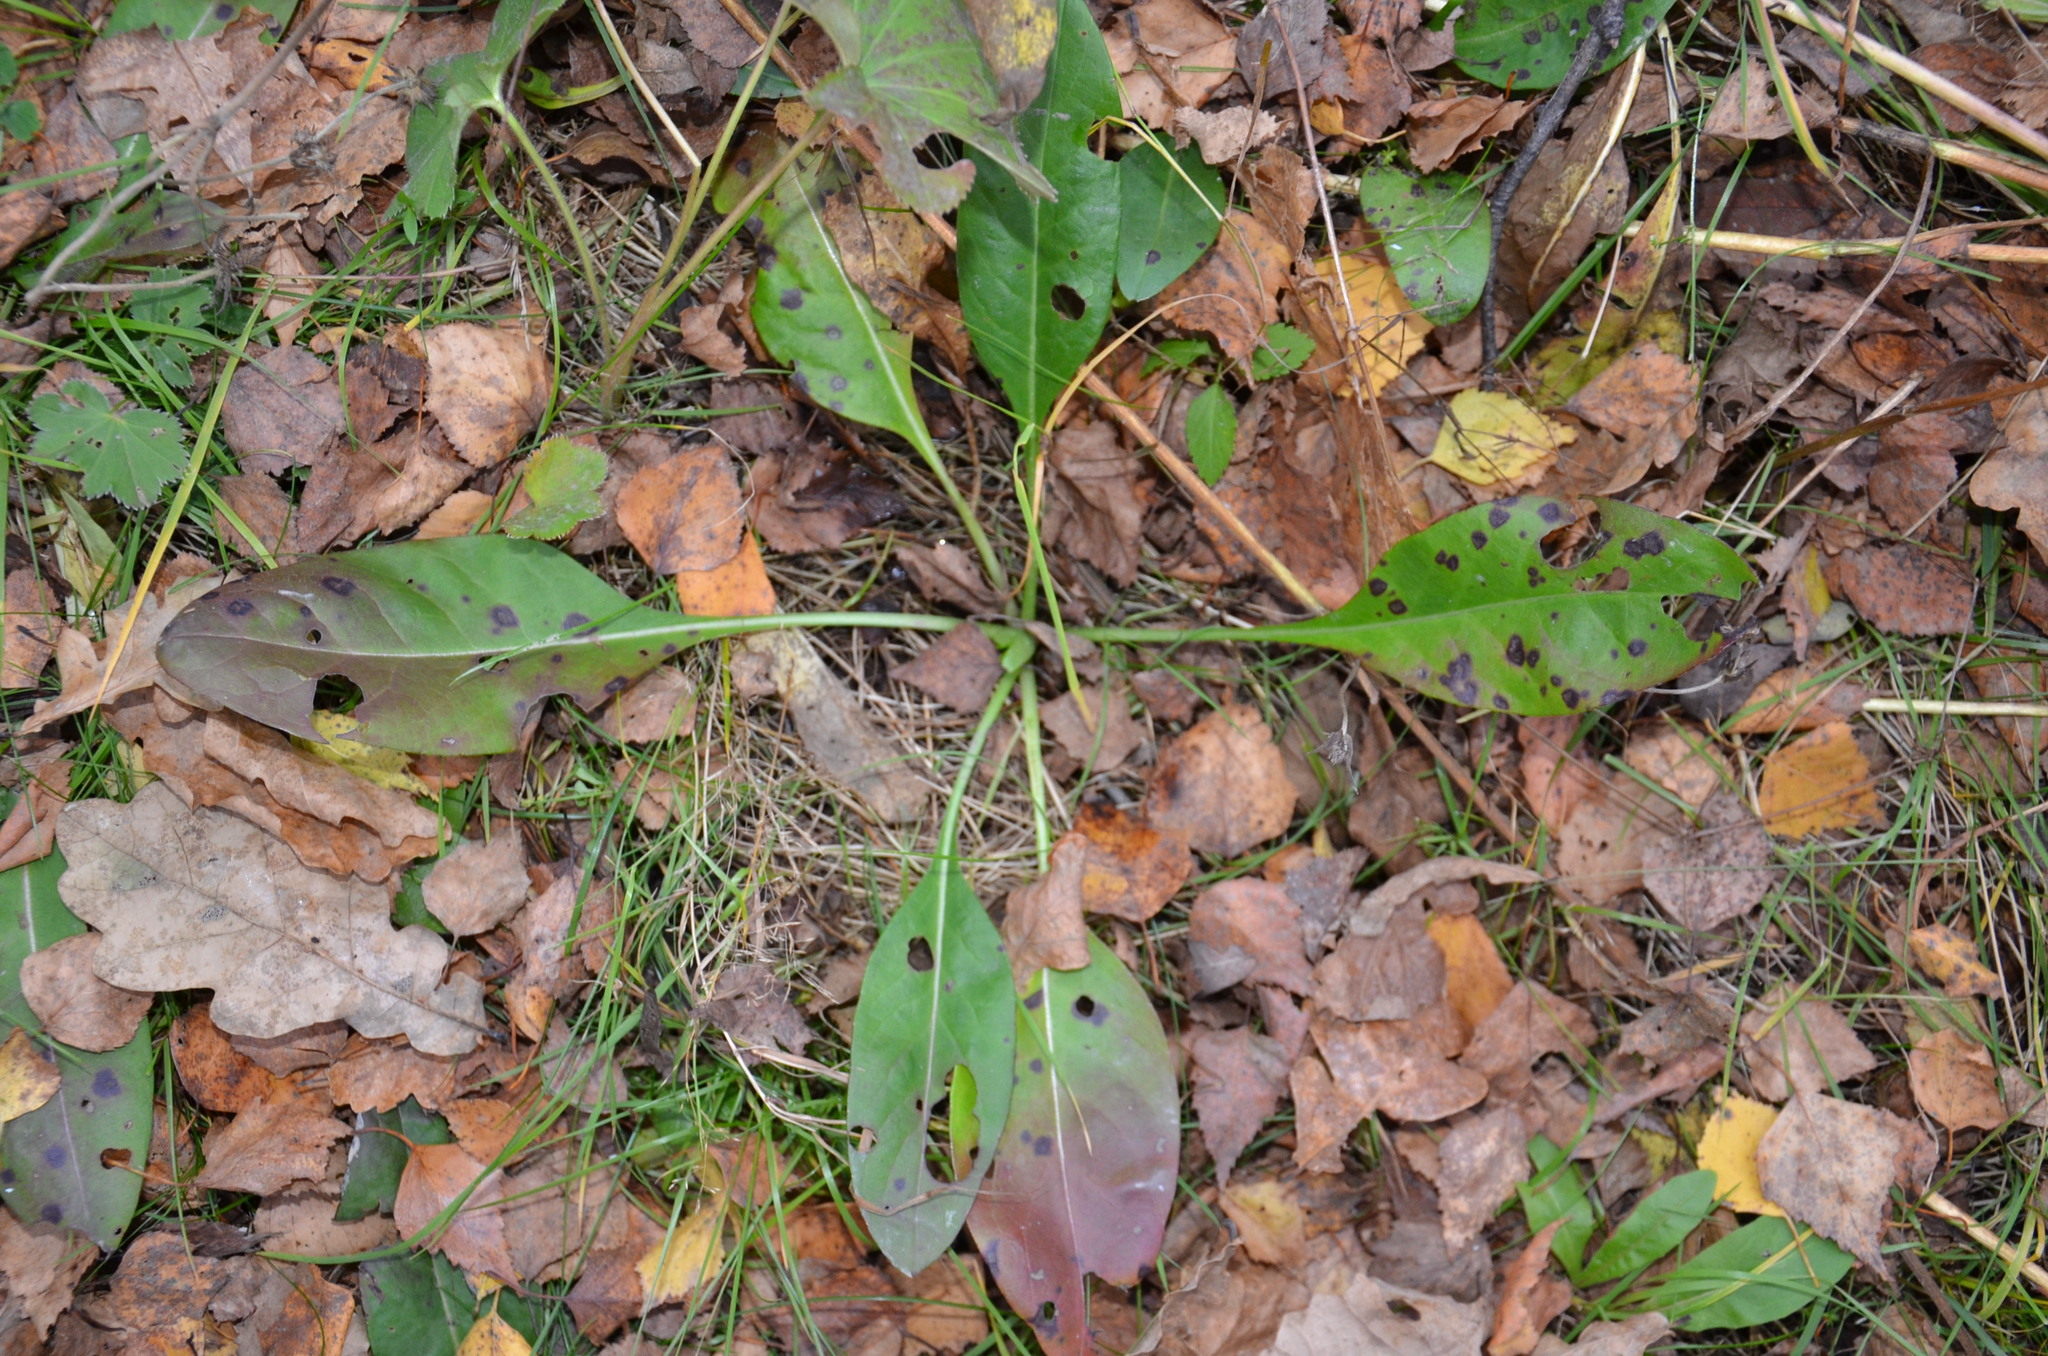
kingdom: Plantae
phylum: Tracheophyta
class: Magnoliopsida
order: Dipsacales
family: Caprifoliaceae
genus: Succisa
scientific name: Succisa pratensis
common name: Devil's-bit
